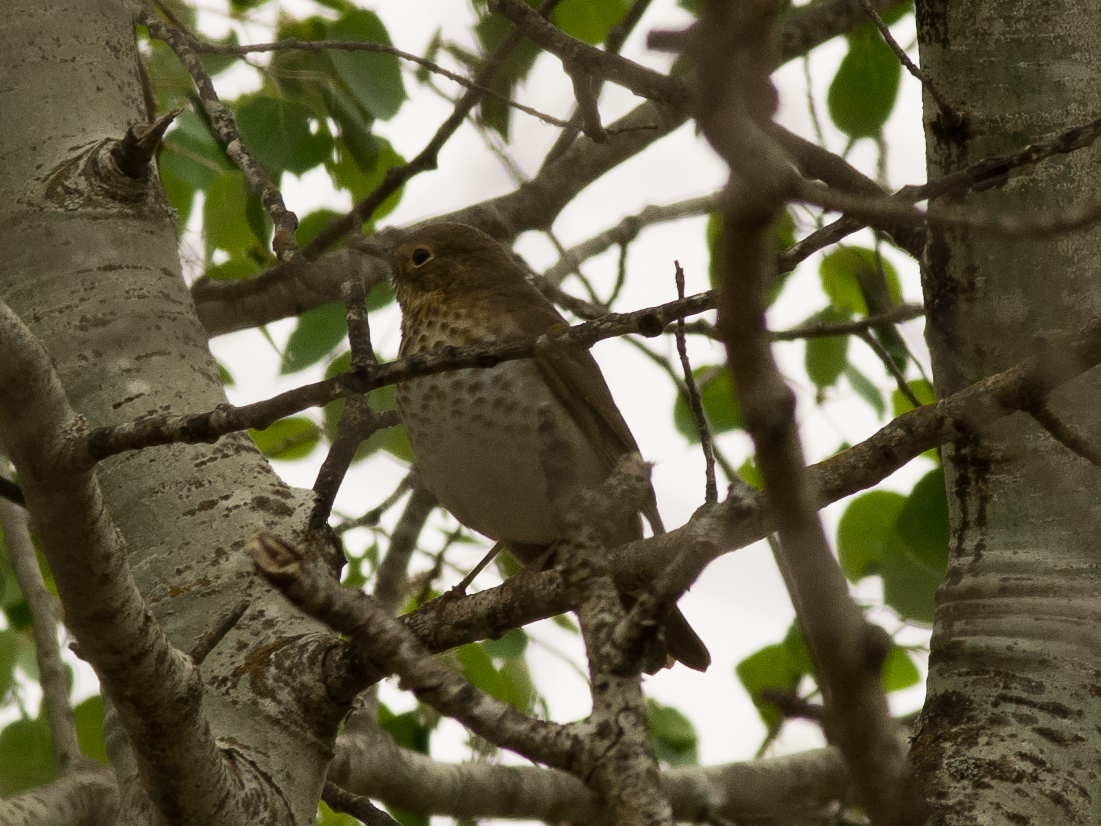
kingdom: Animalia
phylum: Chordata
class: Aves
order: Passeriformes
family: Turdidae
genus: Catharus
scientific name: Catharus ustulatus
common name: Swainson's thrush
